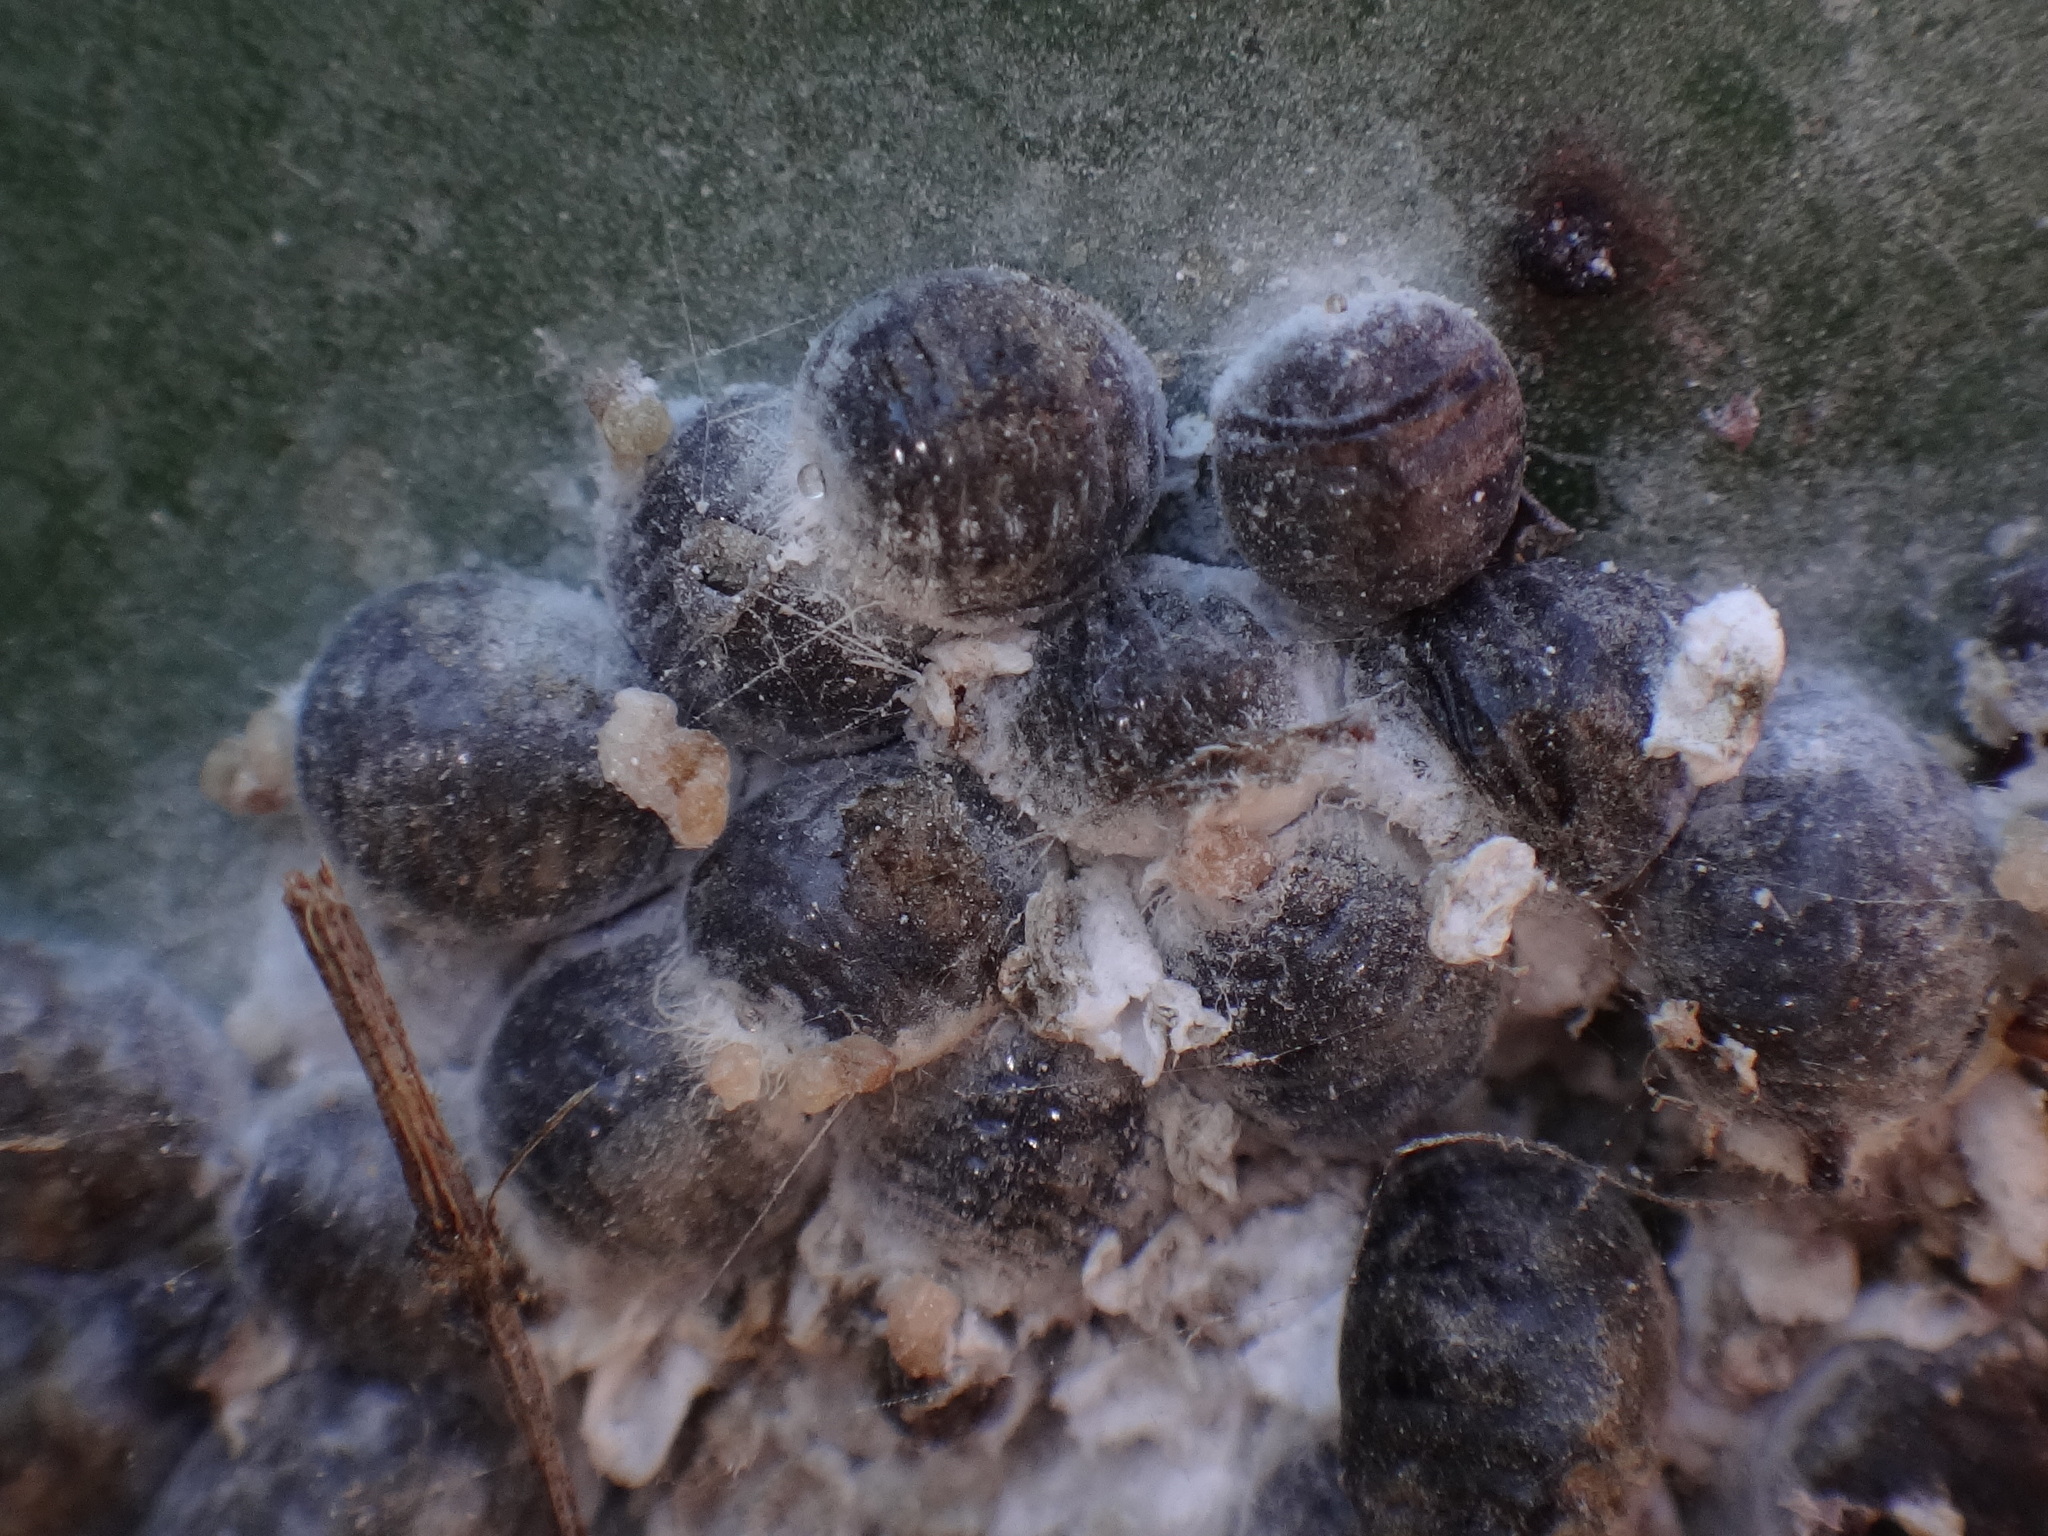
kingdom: Animalia
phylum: Arthropoda
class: Insecta
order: Hemiptera
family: Dactylopiidae
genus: Dactylopius
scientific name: Dactylopius coccus
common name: Cochineal
